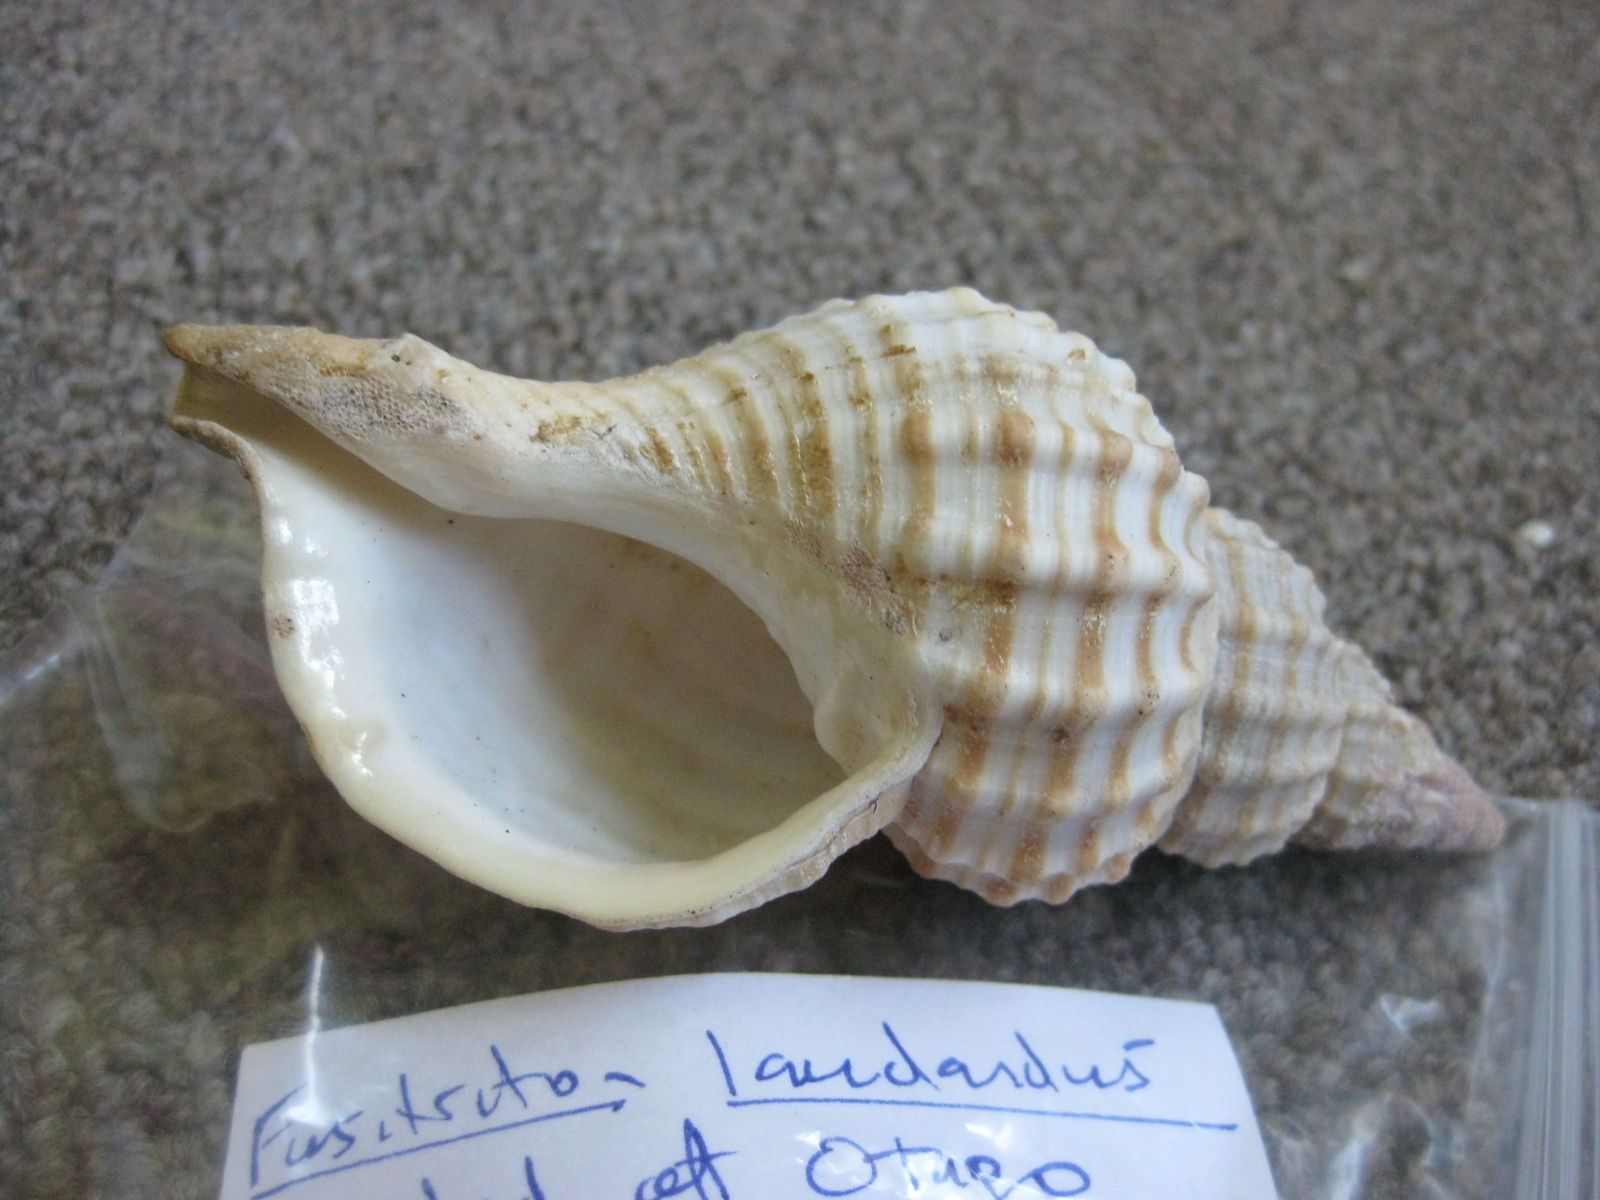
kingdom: Animalia
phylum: Mollusca
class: Gastropoda
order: Littorinimorpha
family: Cymatiidae
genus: Fusitriton
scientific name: Fusitriton magellanicus
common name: Magellanic triton
